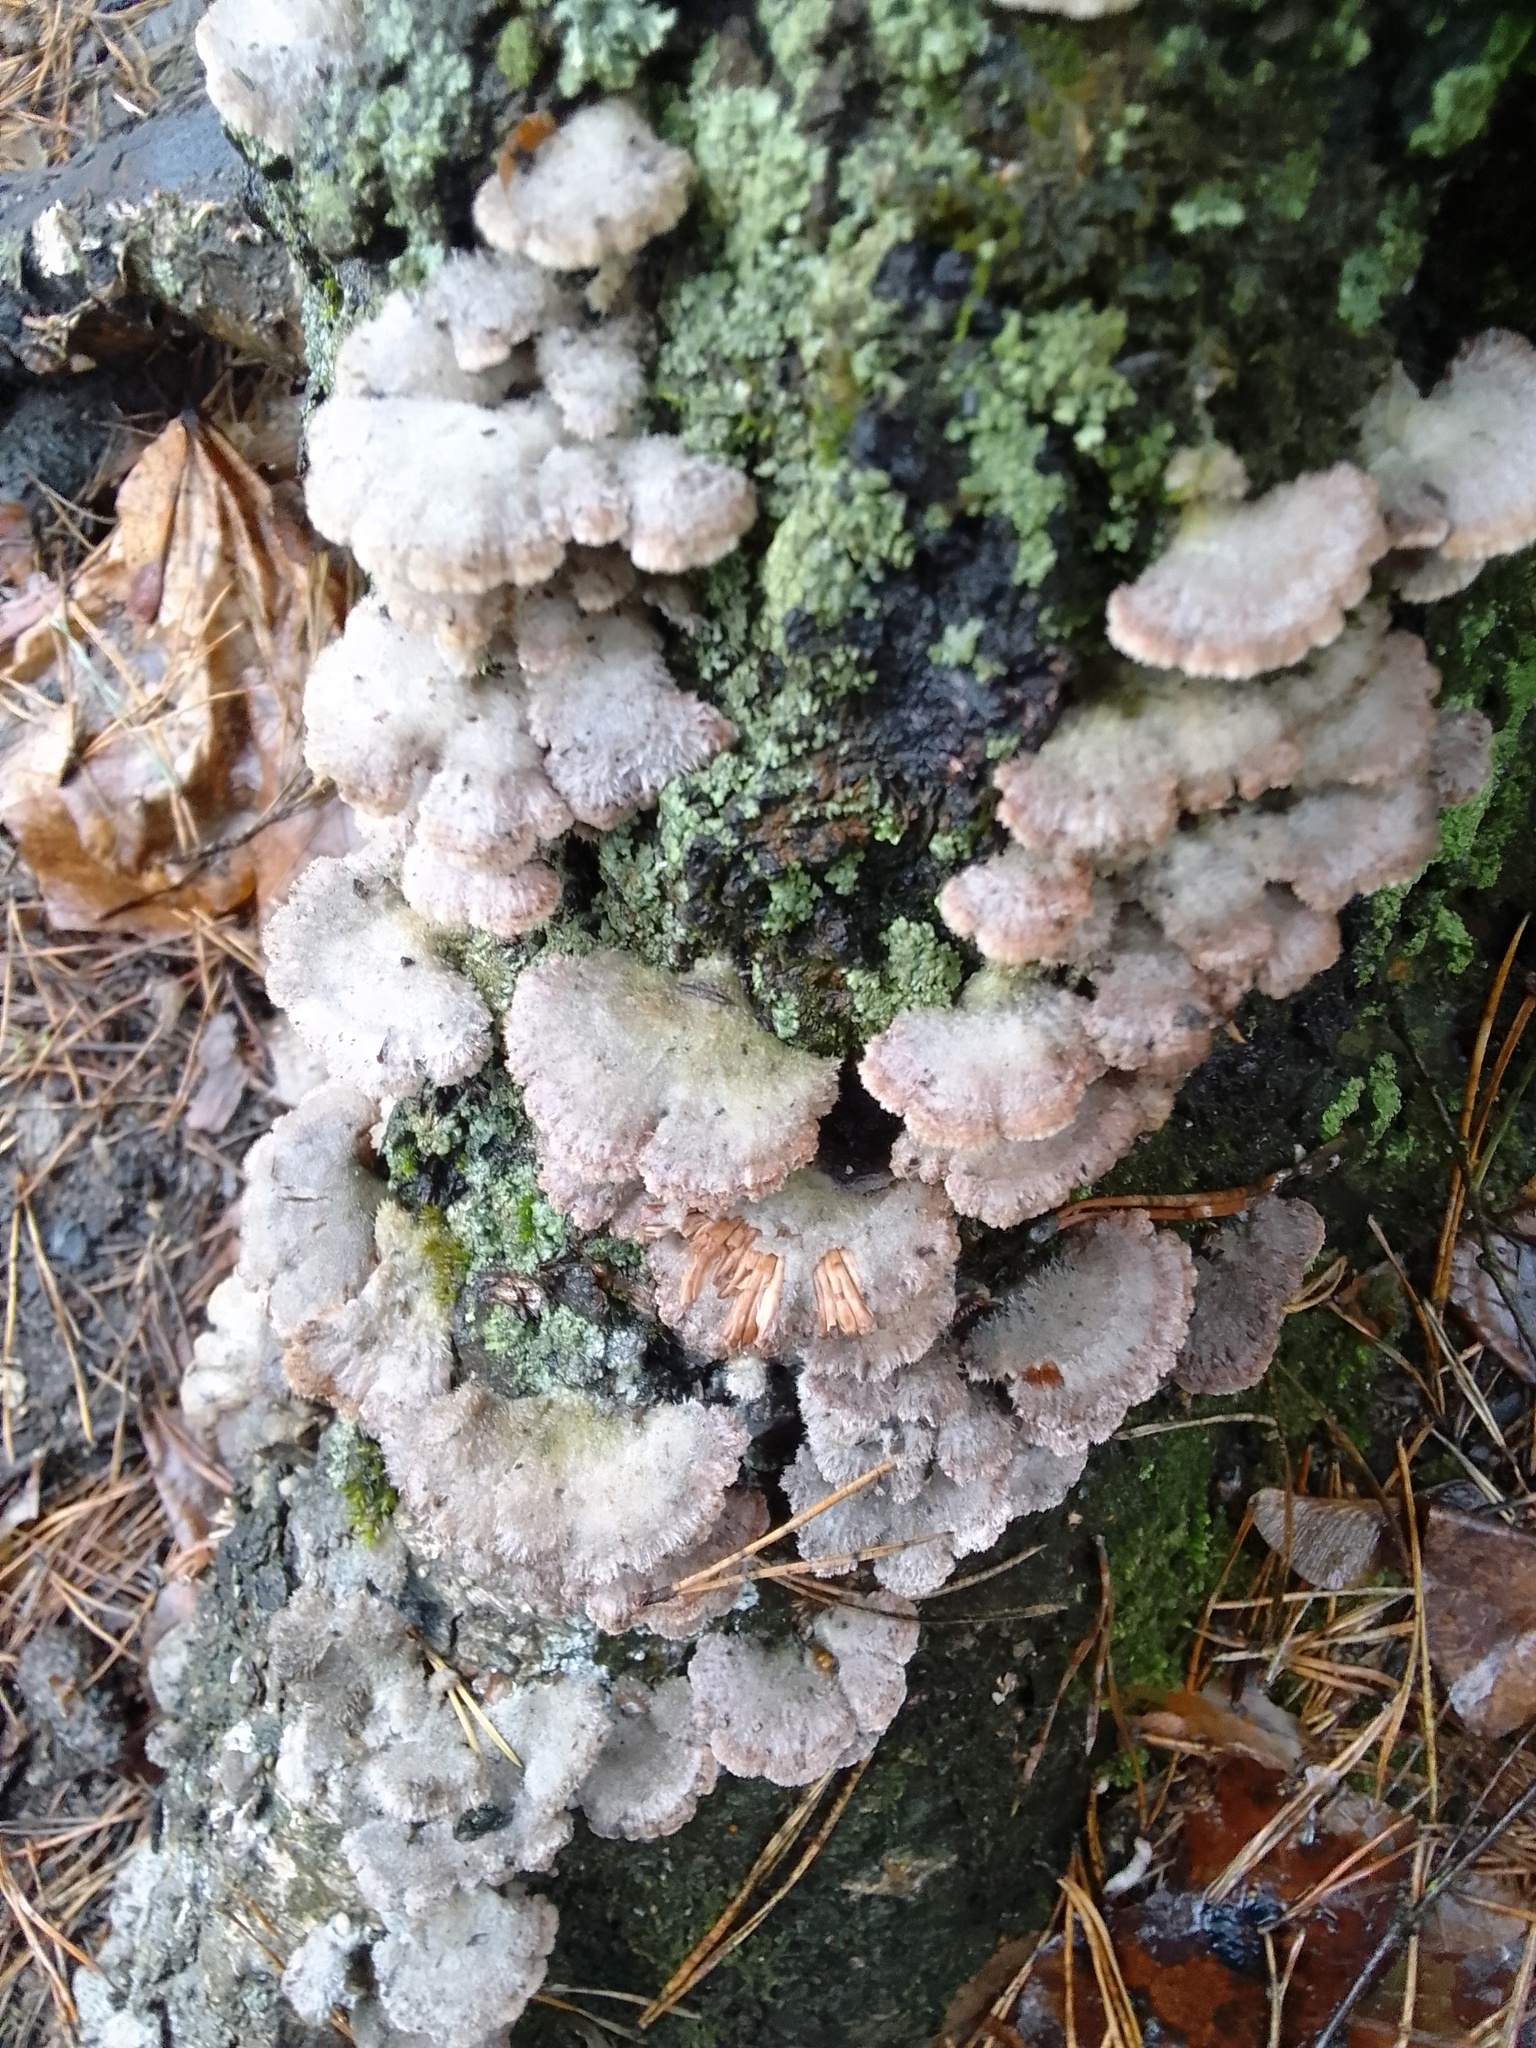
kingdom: Fungi
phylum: Basidiomycota
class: Agaricomycetes
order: Agaricales
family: Schizophyllaceae
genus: Schizophyllum
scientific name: Schizophyllum commune
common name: Common porecrust
